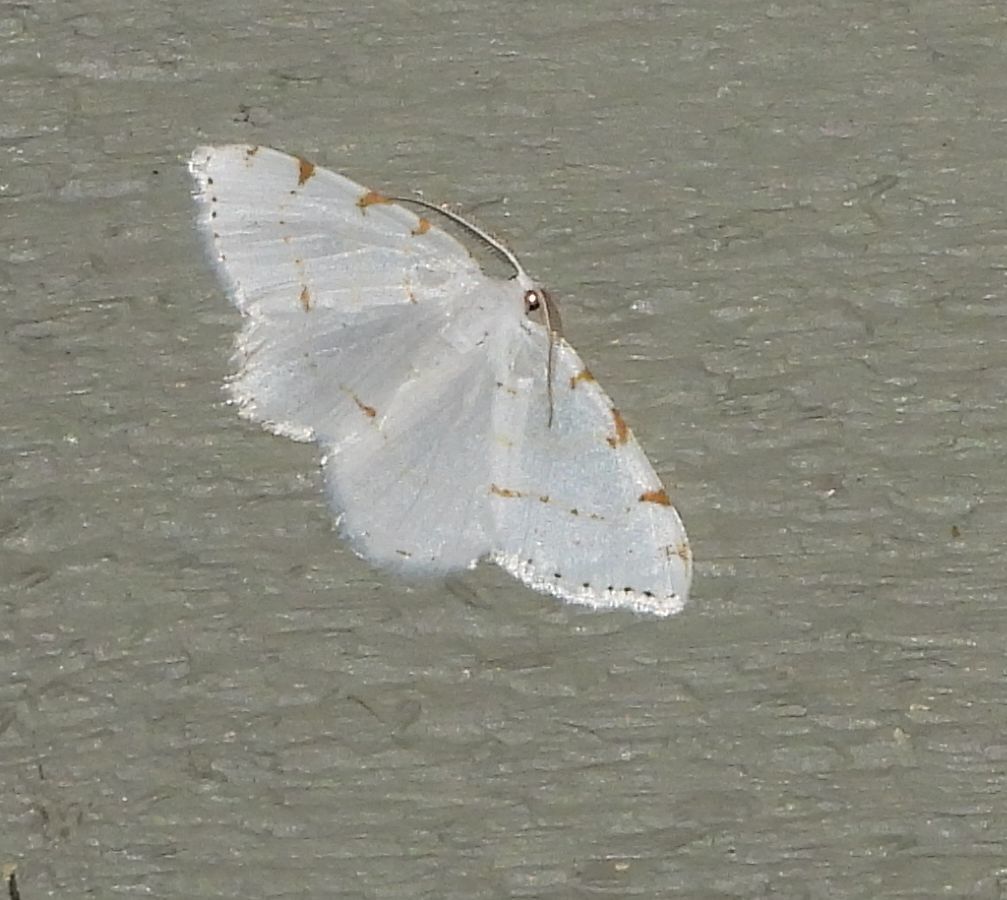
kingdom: Animalia
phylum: Arthropoda
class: Insecta
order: Lepidoptera
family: Geometridae
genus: Macaria
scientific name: Macaria pustularia
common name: Lesser maple spanworm moth
